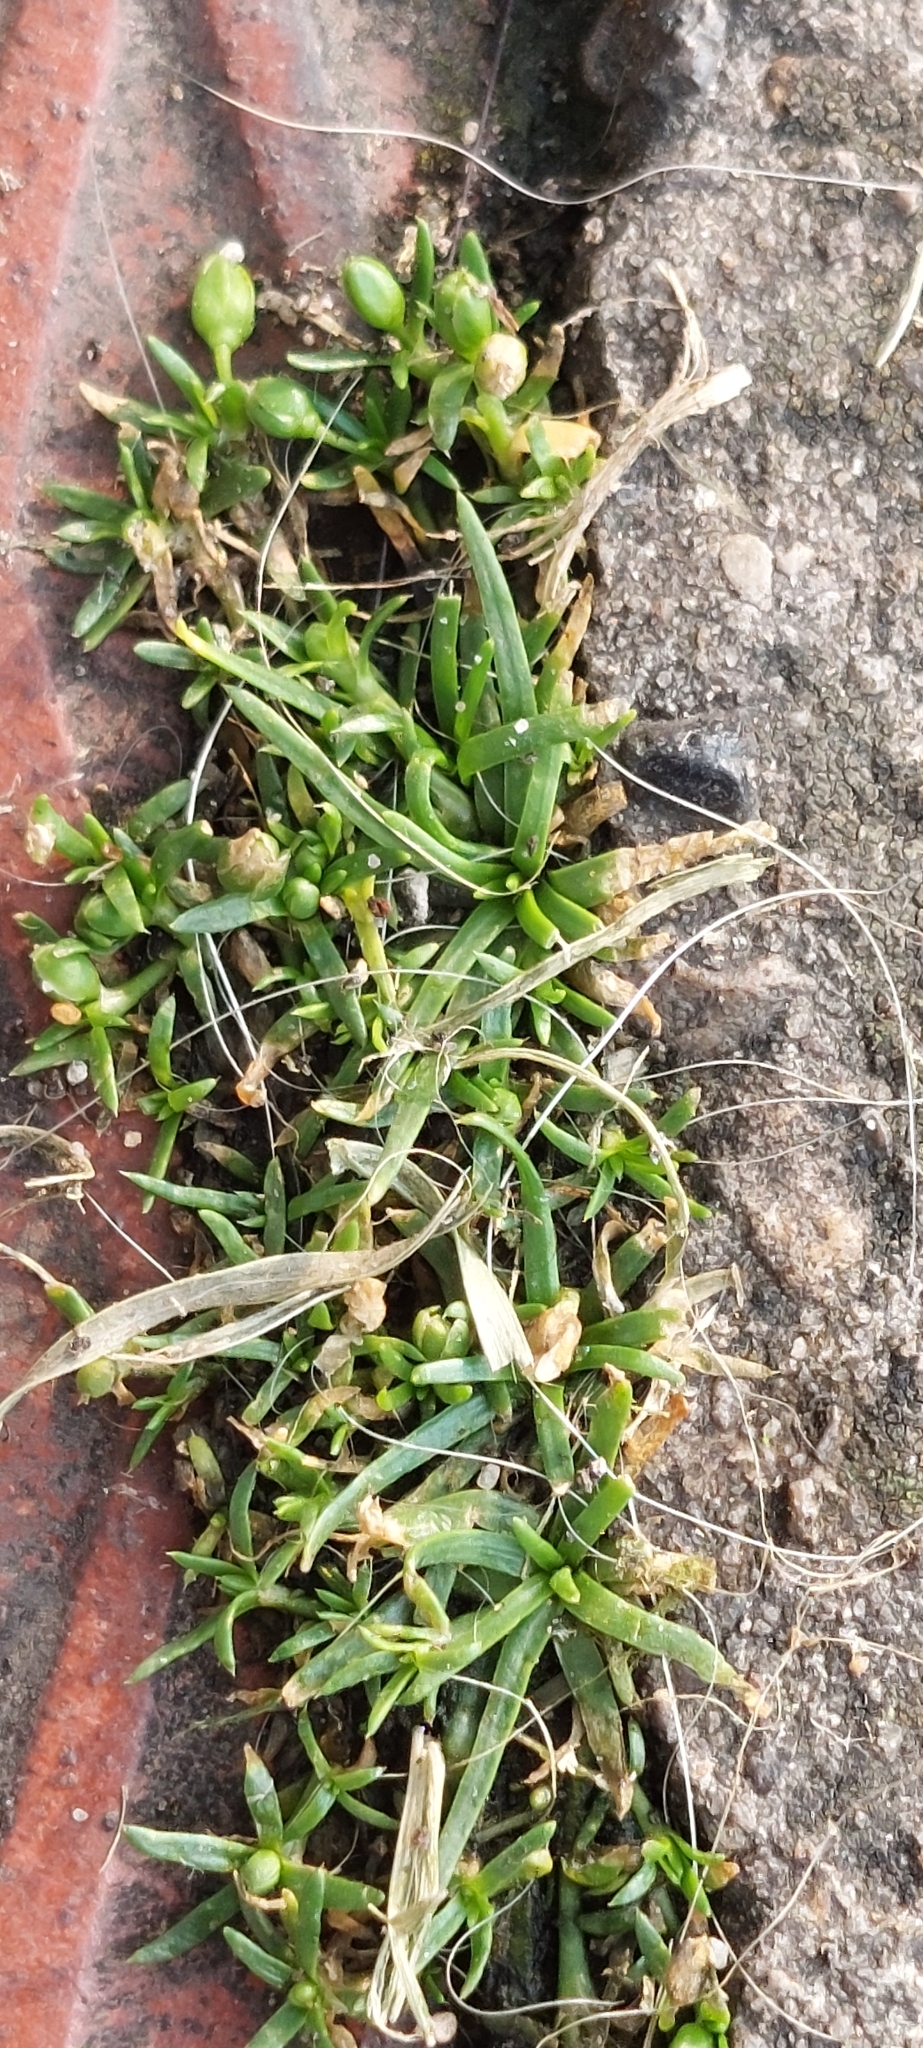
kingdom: Plantae
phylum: Tracheophyta
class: Magnoliopsida
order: Caryophyllales
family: Caryophyllaceae
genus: Sagina
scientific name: Sagina procumbens
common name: Procumbent pearlwort
